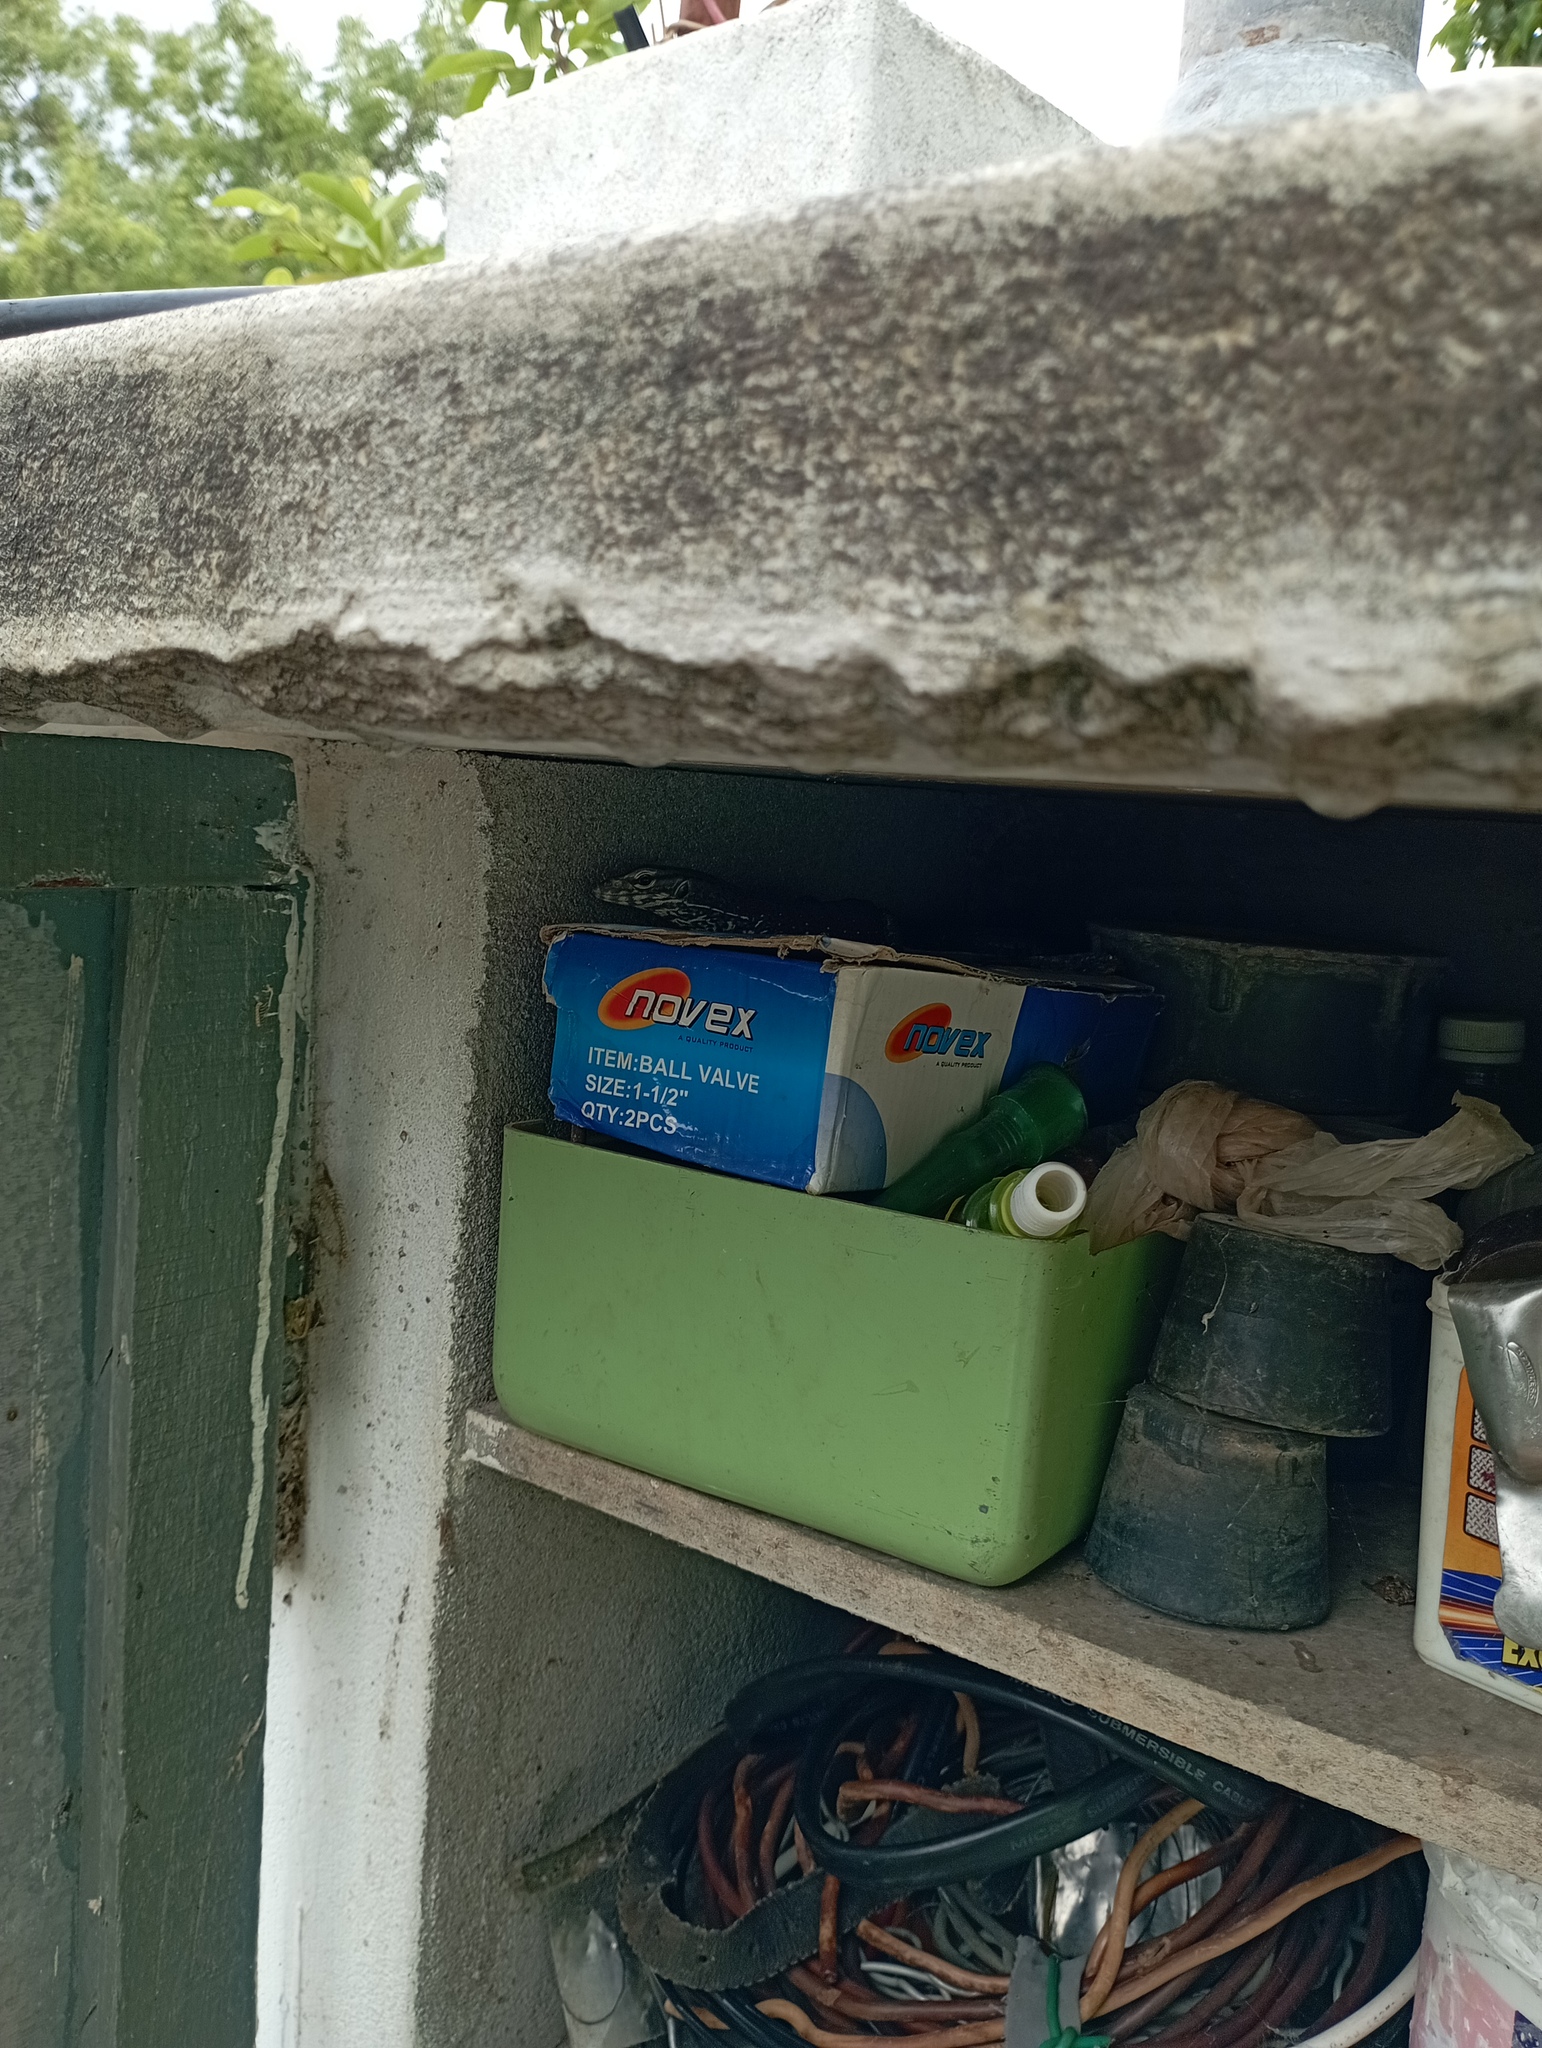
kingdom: Animalia
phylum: Chordata
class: Squamata
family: Varanidae
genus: Varanus
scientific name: Varanus bengalensis
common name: Bengal monitor
